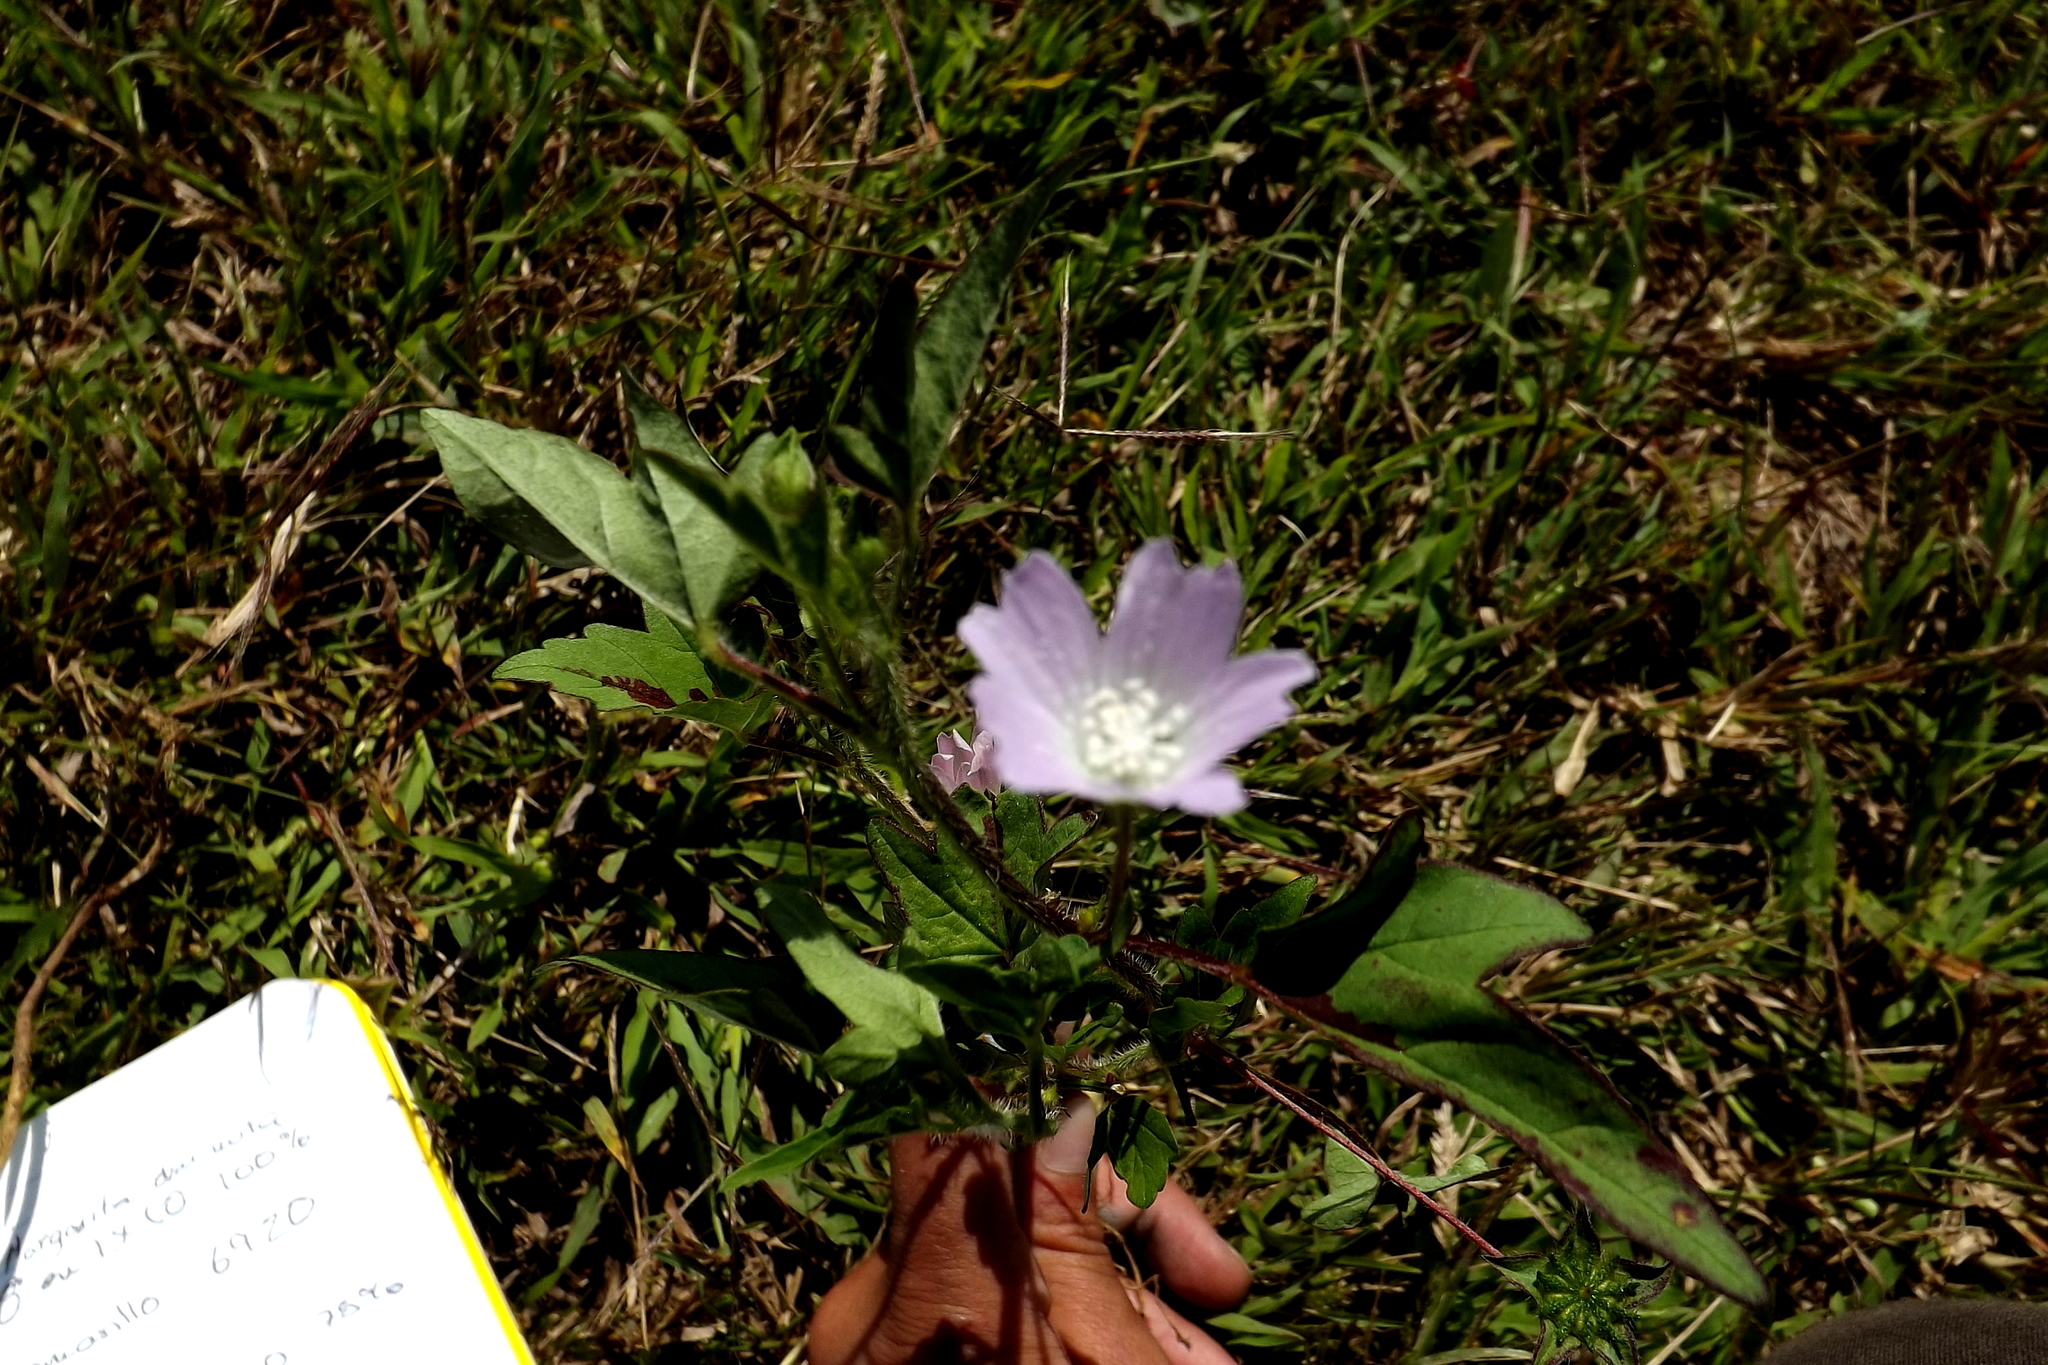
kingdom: Plantae
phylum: Tracheophyta
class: Magnoliopsida
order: Malvales
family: Malvaceae
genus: Anoda
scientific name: Anoda cristata
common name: Spurred anoda
